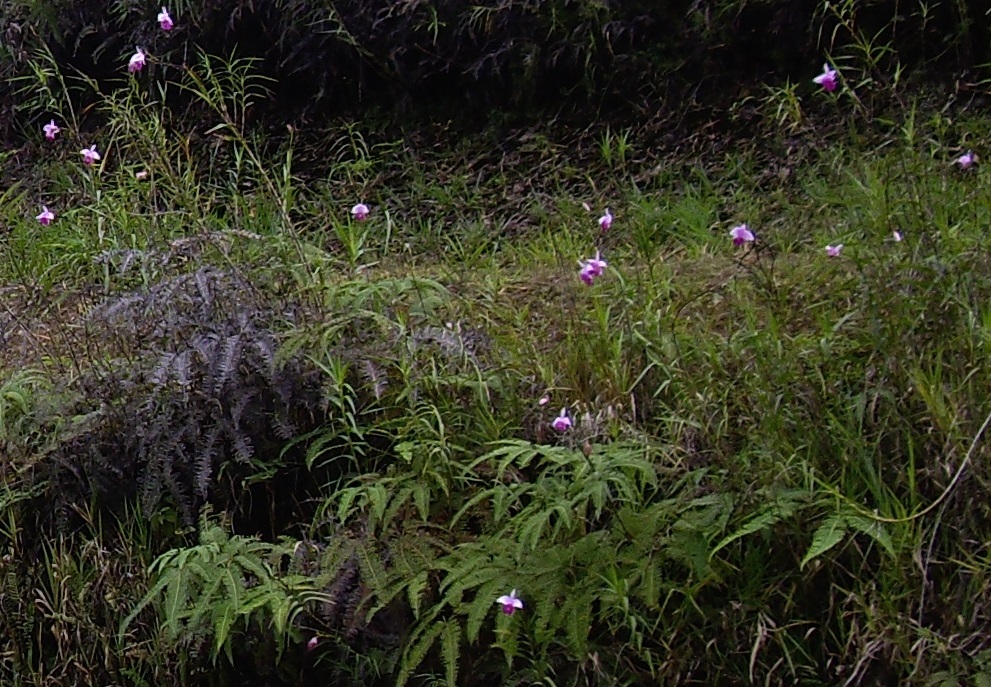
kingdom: Plantae
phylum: Tracheophyta
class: Liliopsida
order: Asparagales
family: Orchidaceae
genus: Arundina
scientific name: Arundina graminifolia
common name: Bamboo orchid
